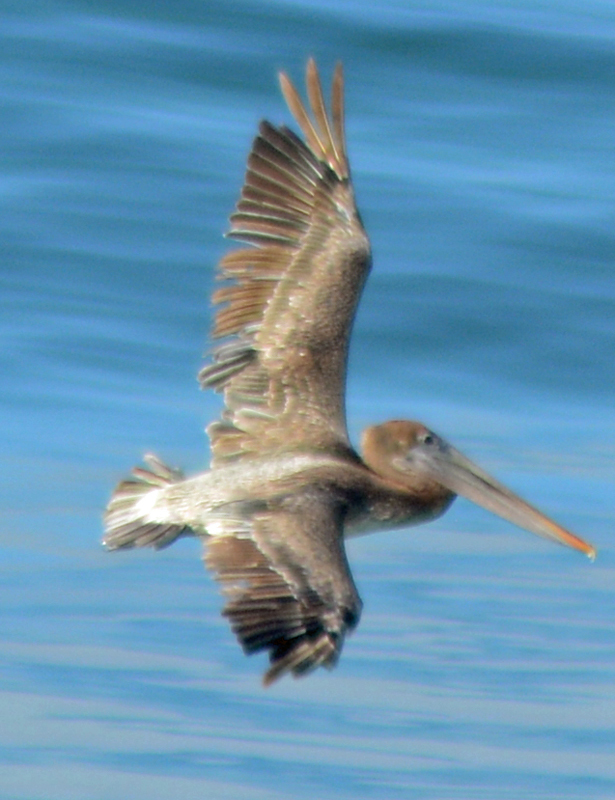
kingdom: Animalia
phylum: Chordata
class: Aves
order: Pelecaniformes
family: Pelecanidae
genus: Pelecanus
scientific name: Pelecanus occidentalis
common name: Brown pelican
